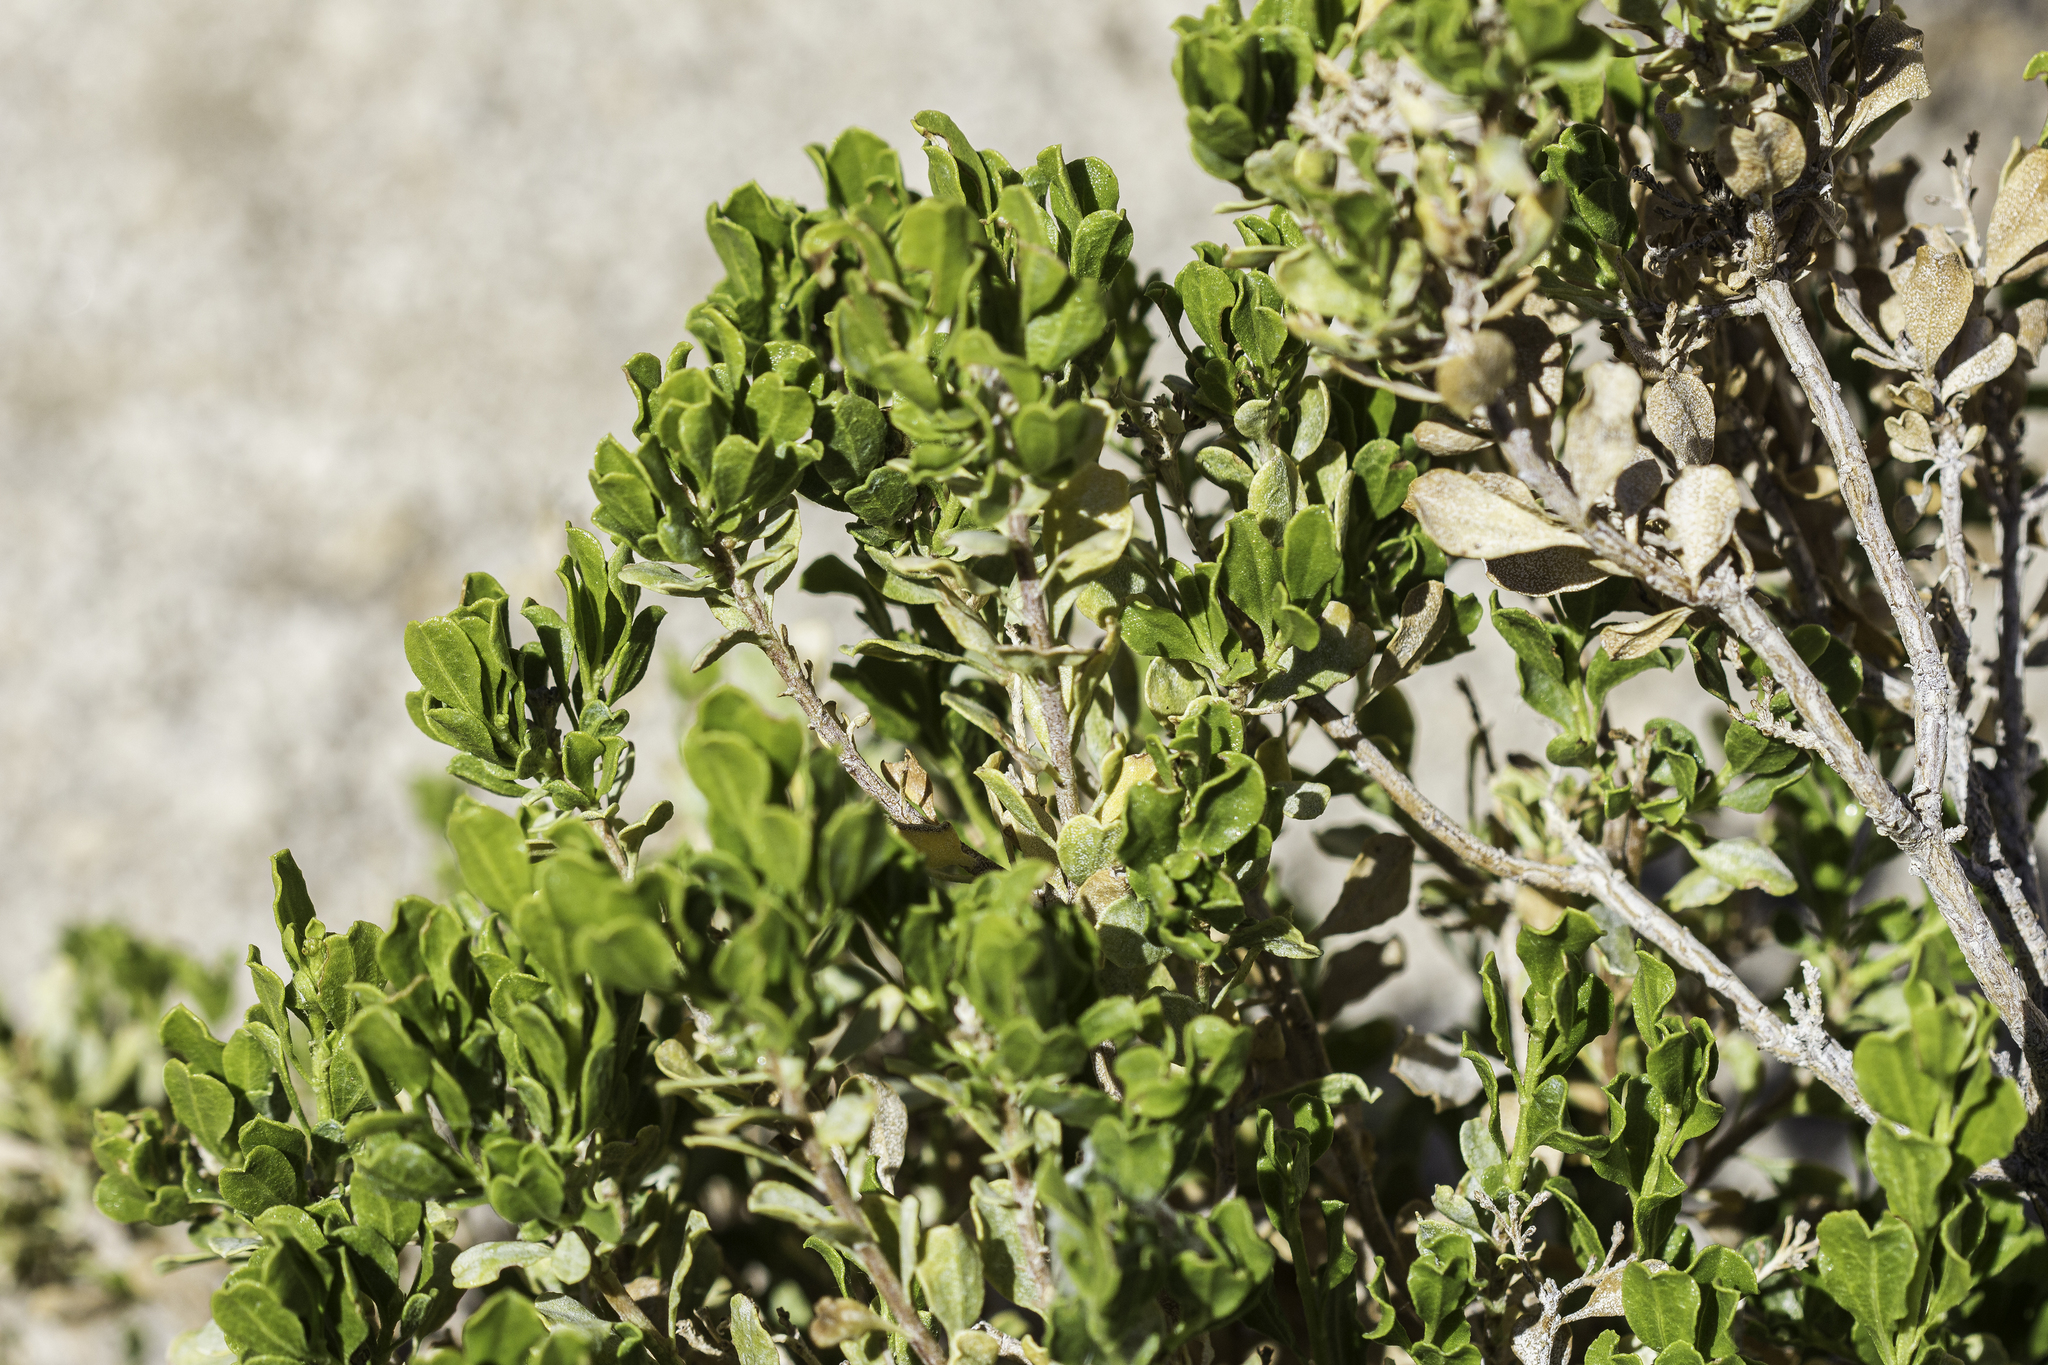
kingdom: Plantae
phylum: Tracheophyta
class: Magnoliopsida
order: Asterales
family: Asteraceae
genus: Ericameria
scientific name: Ericameria cuneata
